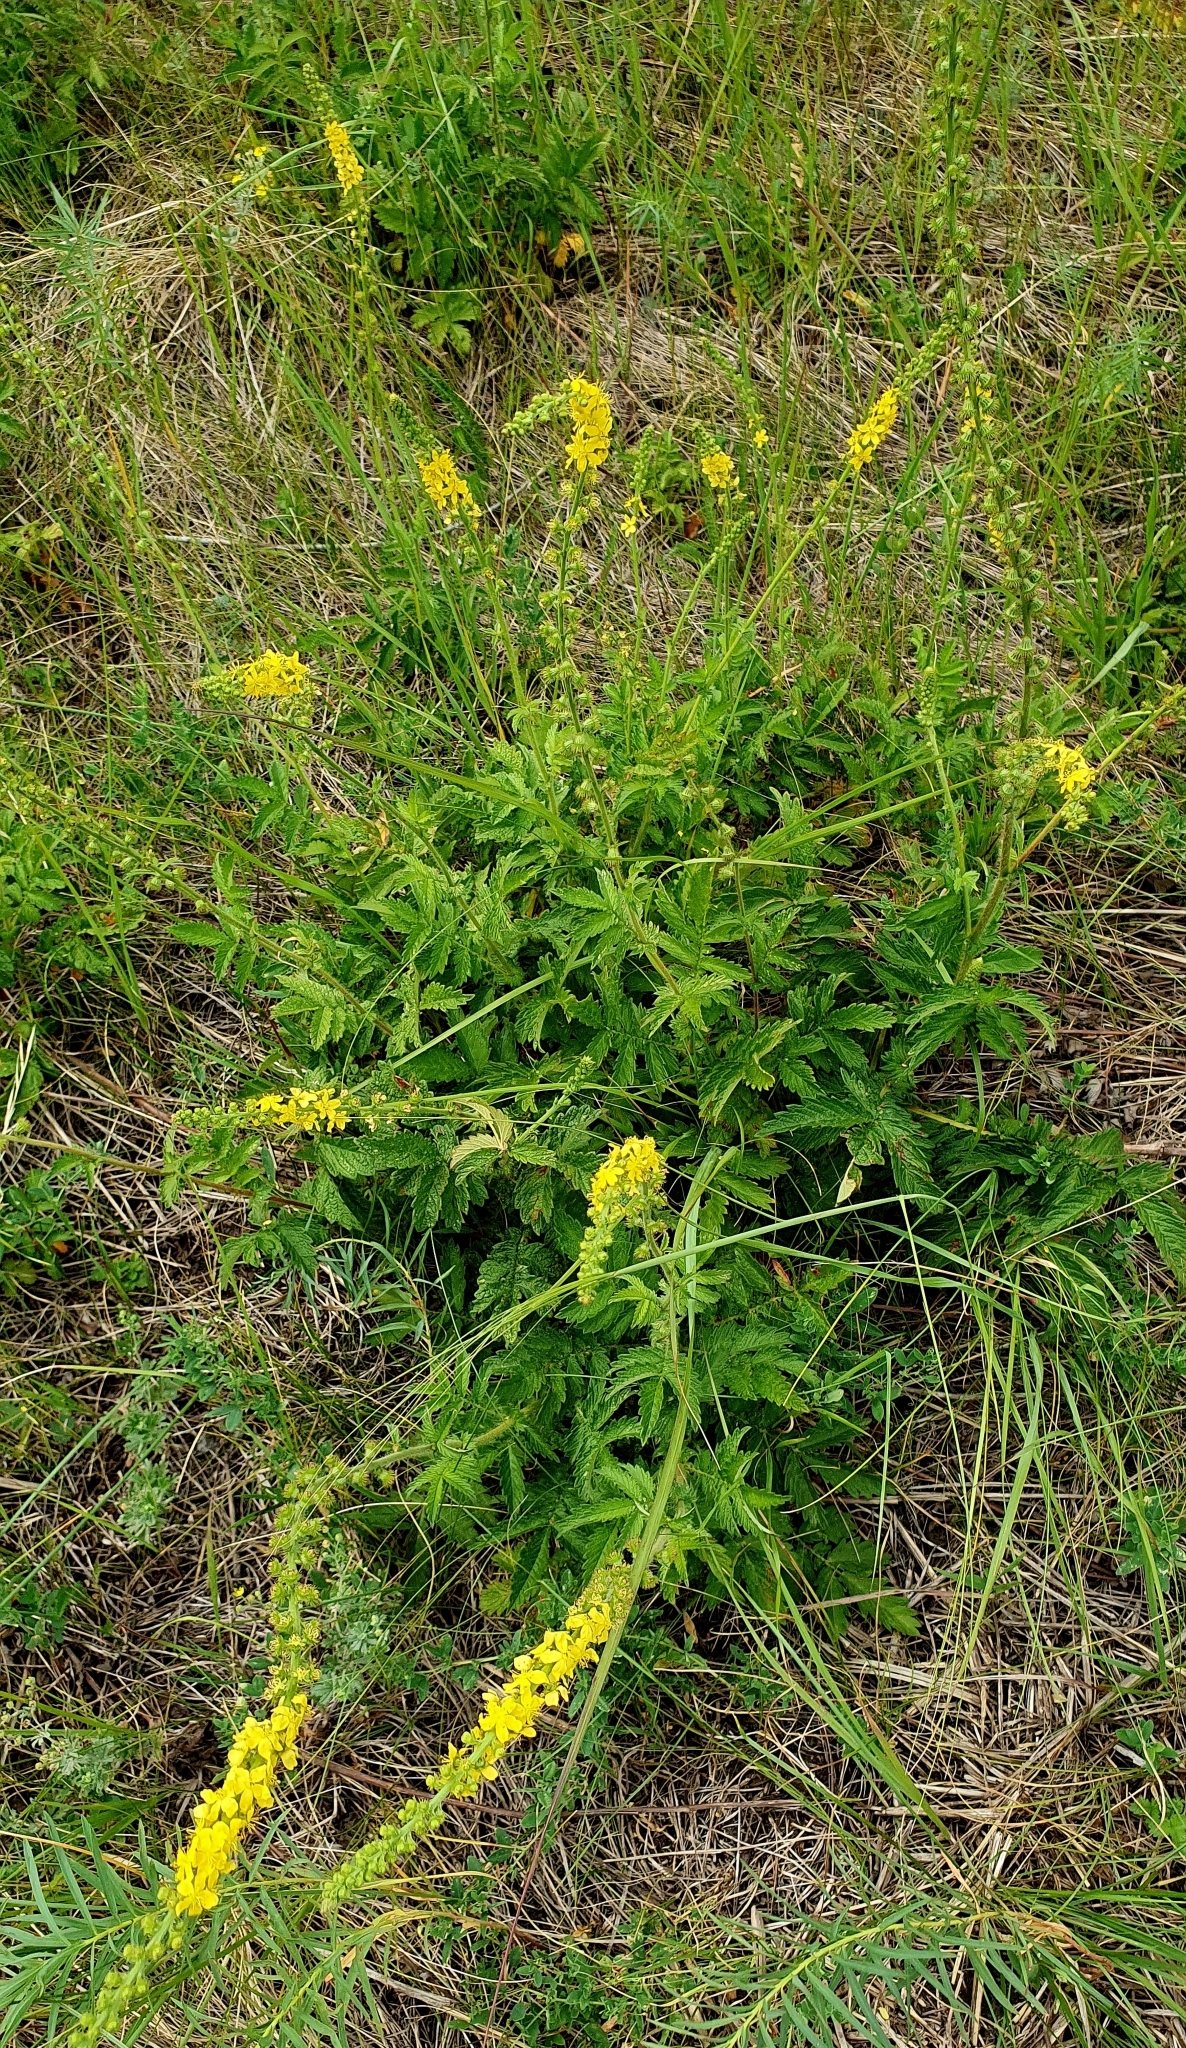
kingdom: Plantae
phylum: Tracheophyta
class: Magnoliopsida
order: Rosales
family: Rosaceae
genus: Agrimonia
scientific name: Agrimonia eupatoria
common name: Agrimony
